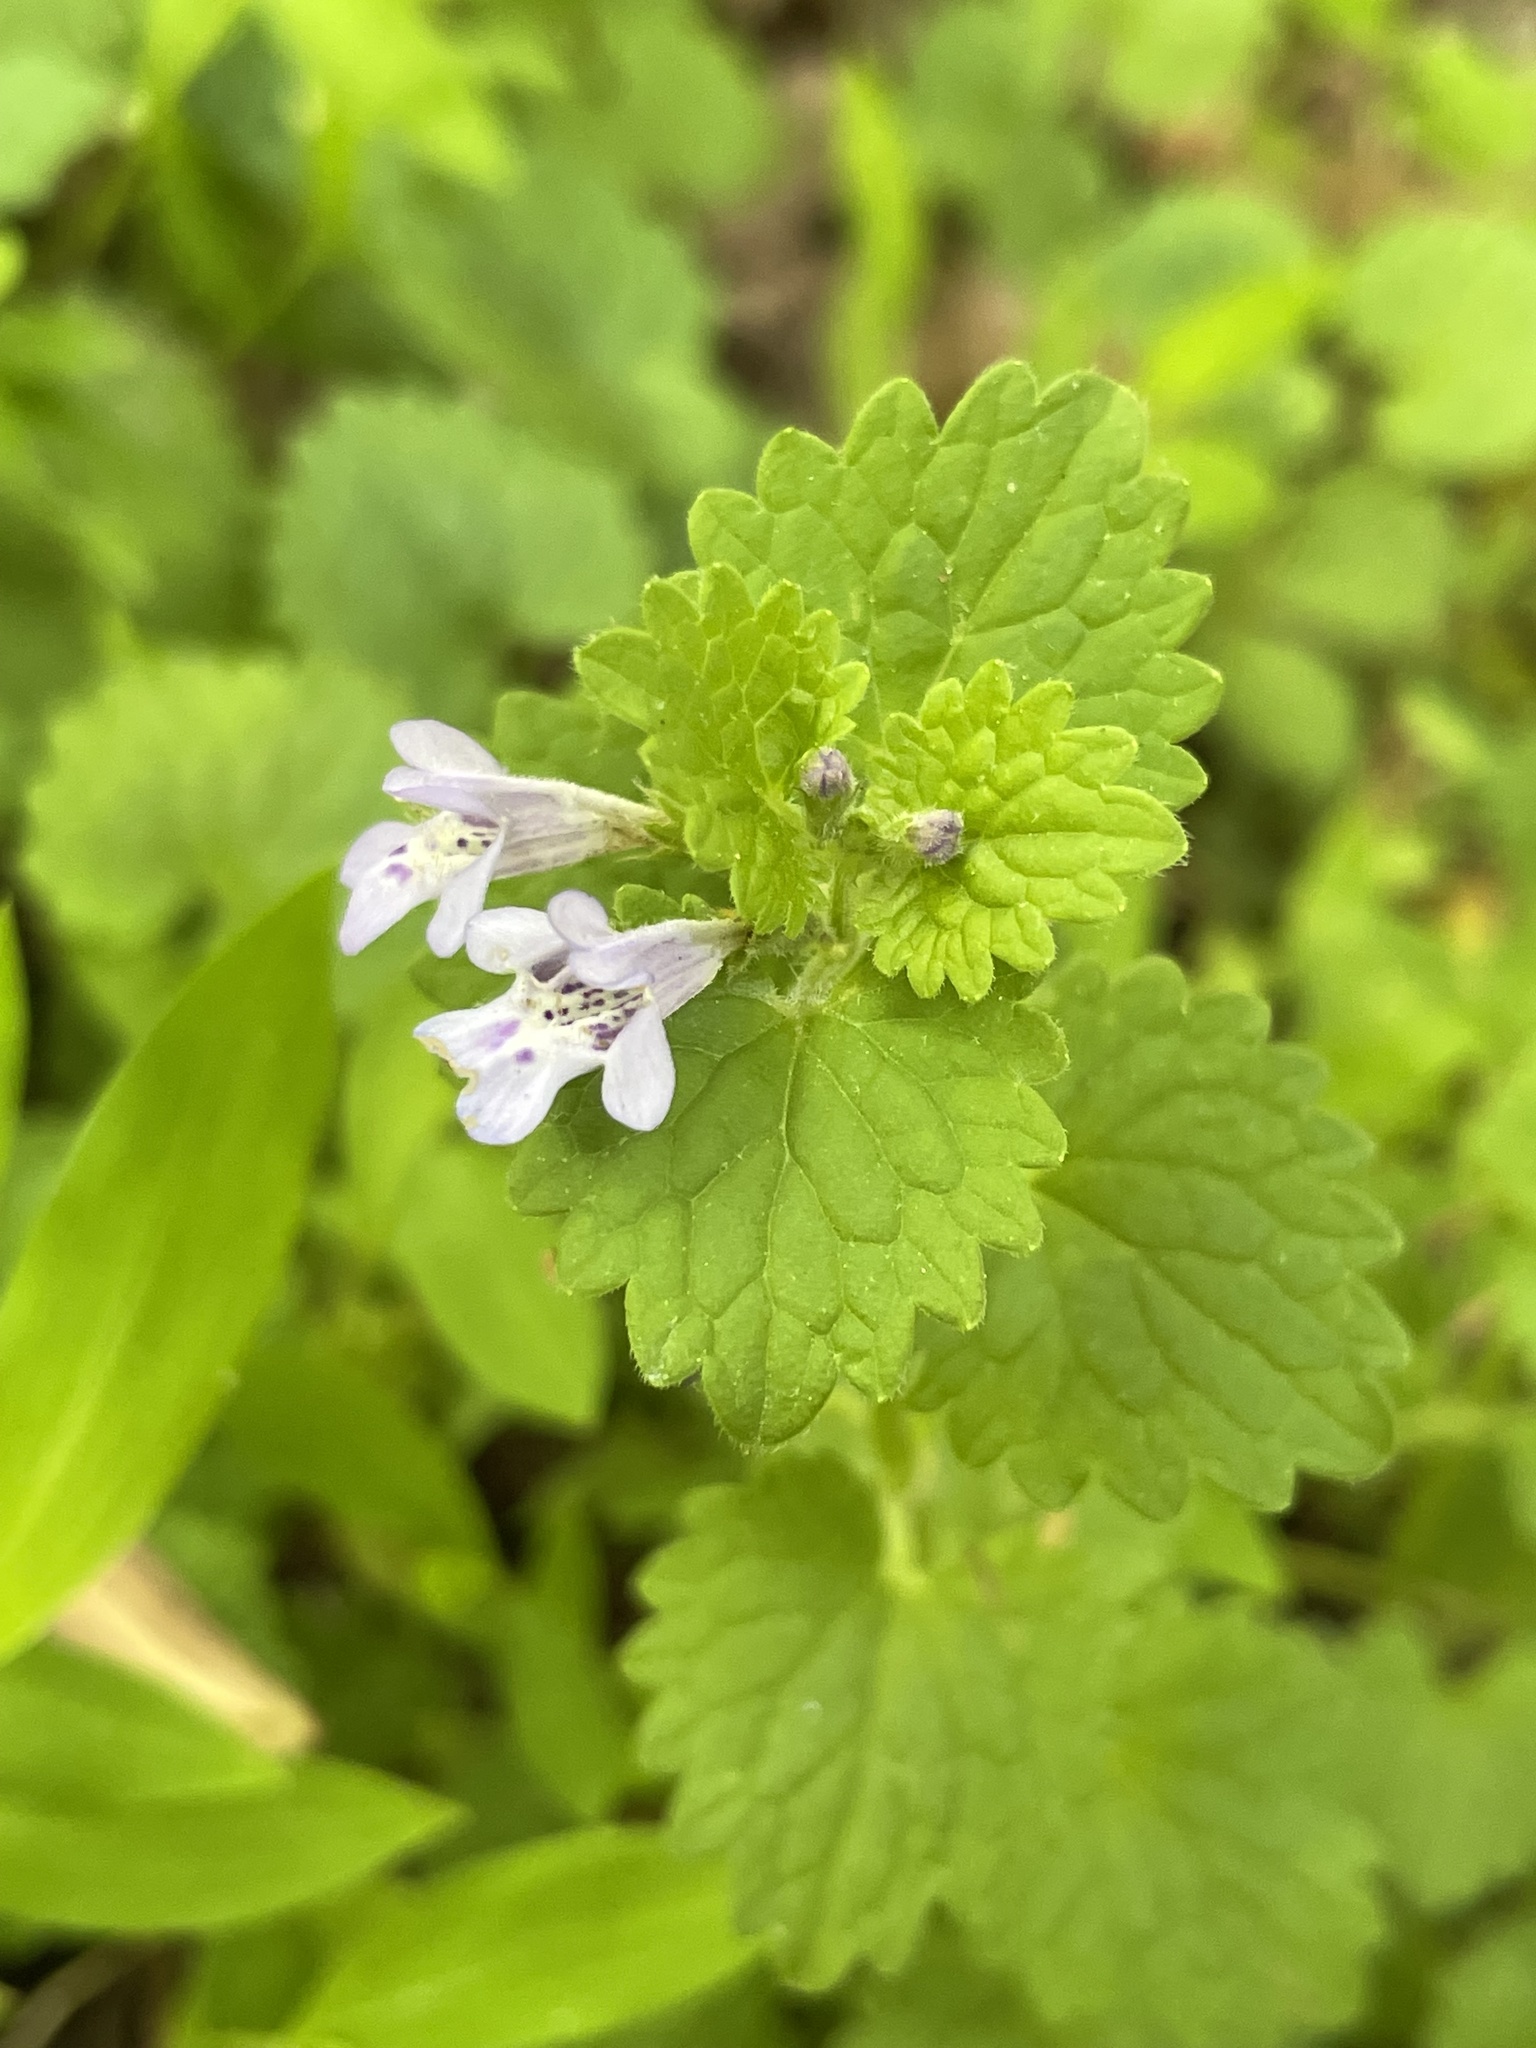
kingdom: Plantae
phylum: Tracheophyta
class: Magnoliopsida
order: Lamiales
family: Lamiaceae
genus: Glechoma
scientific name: Glechoma hederacea
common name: Ground ivy
